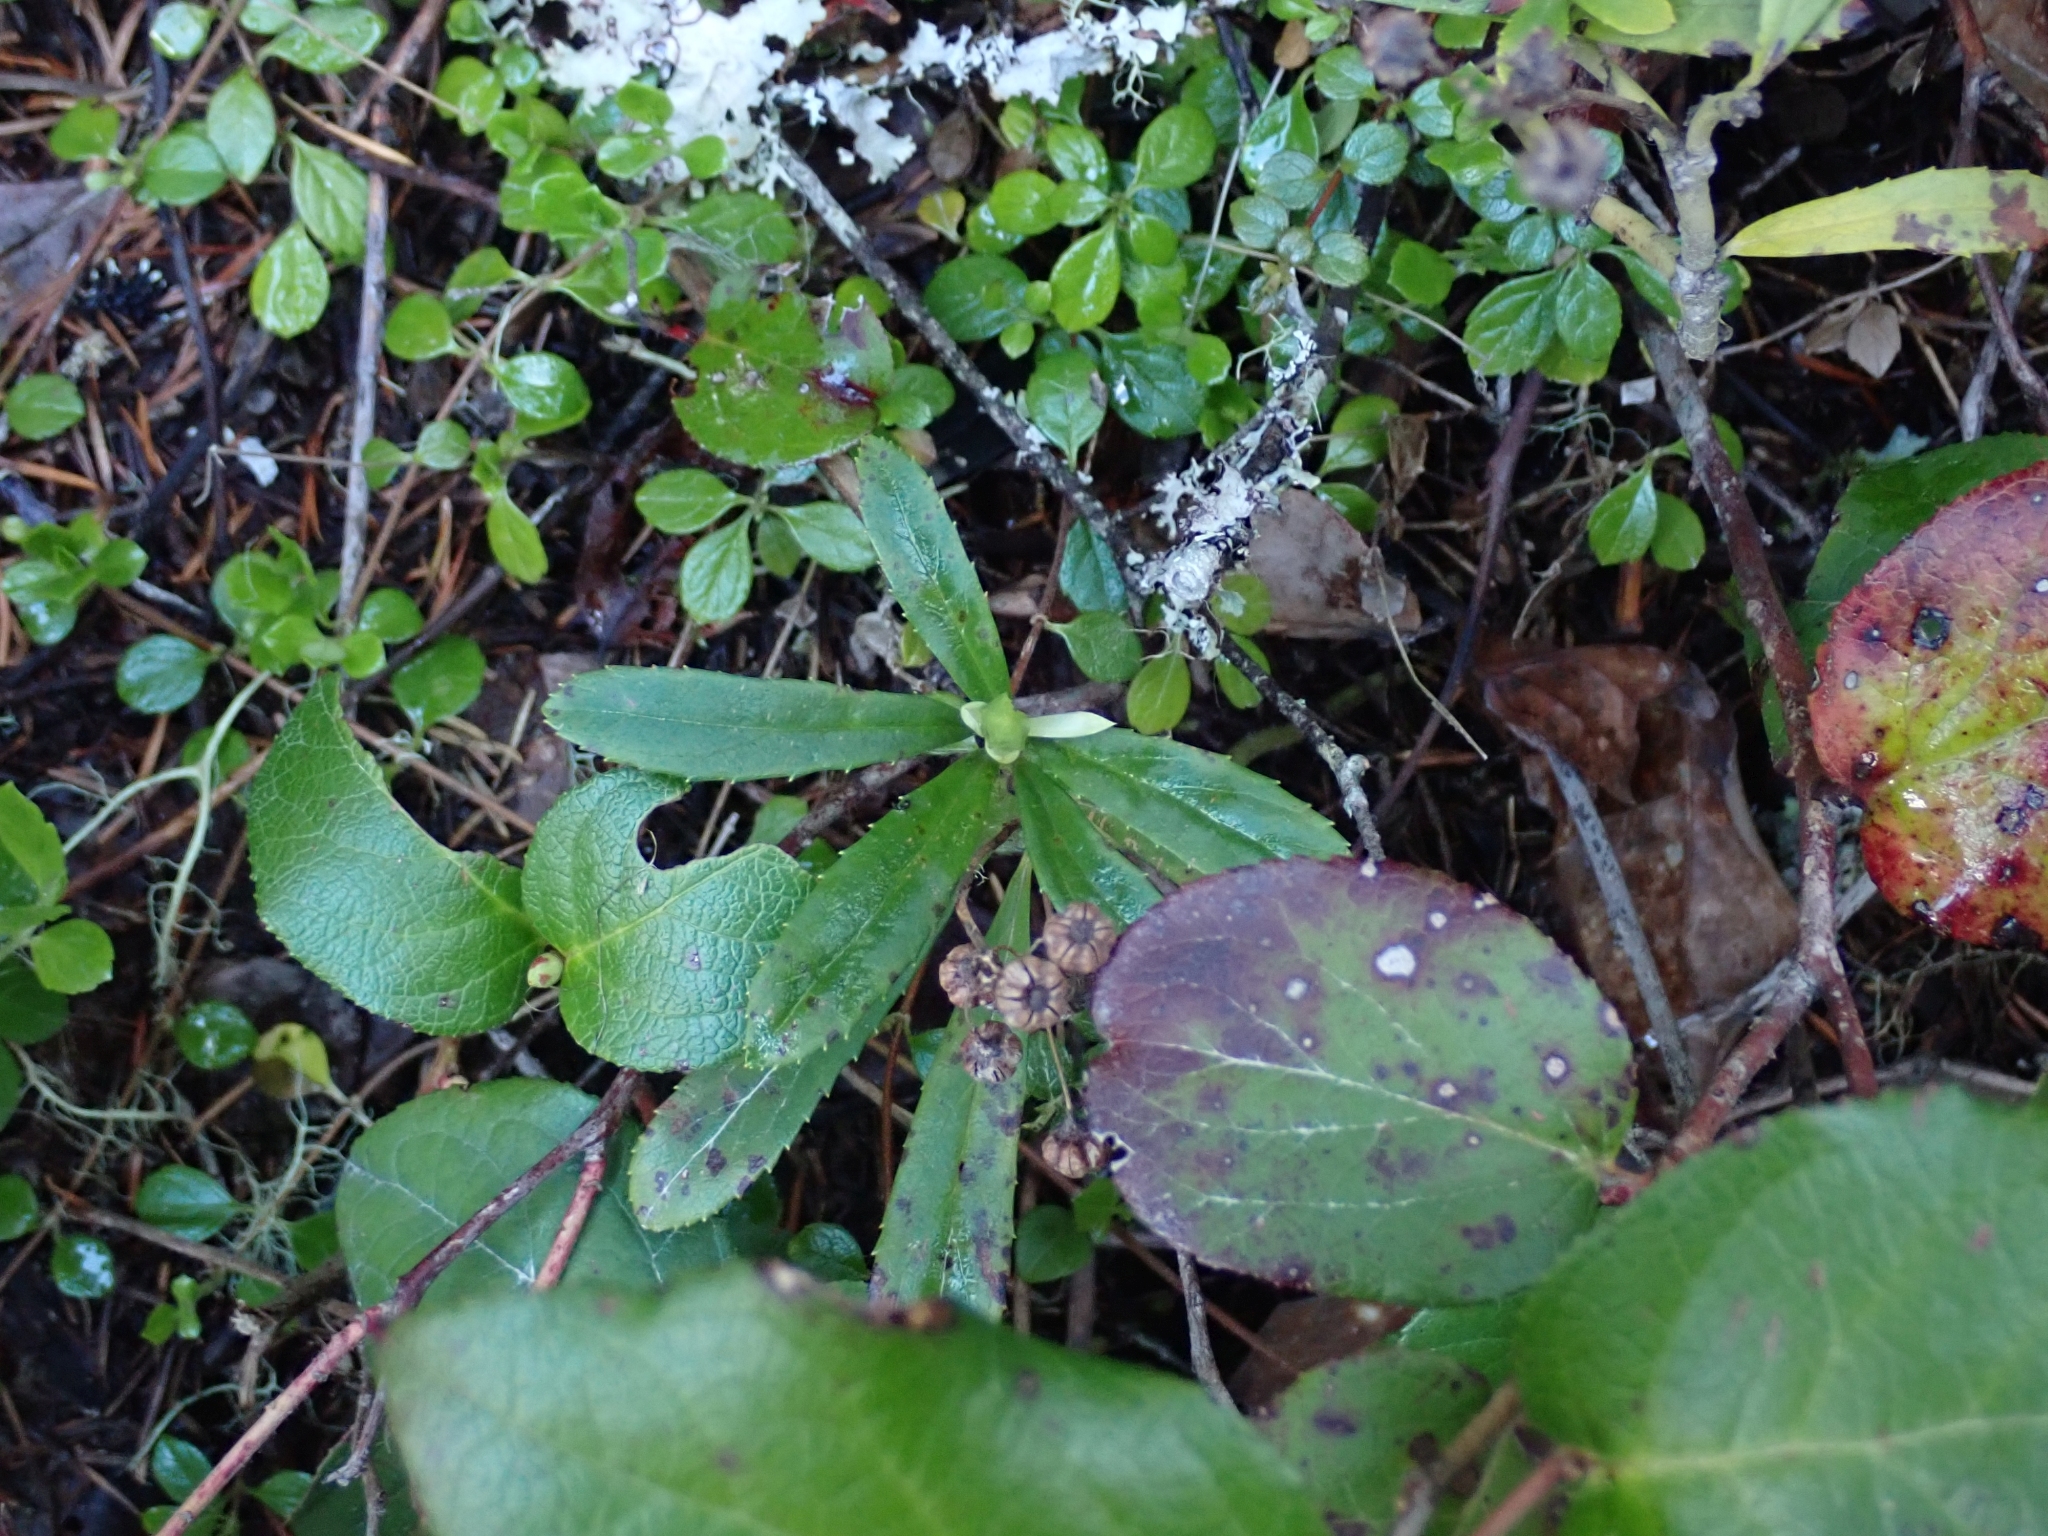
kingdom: Plantae
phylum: Tracheophyta
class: Magnoliopsida
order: Ericales
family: Ericaceae
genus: Chimaphila
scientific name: Chimaphila umbellata
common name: Pipsissewa
